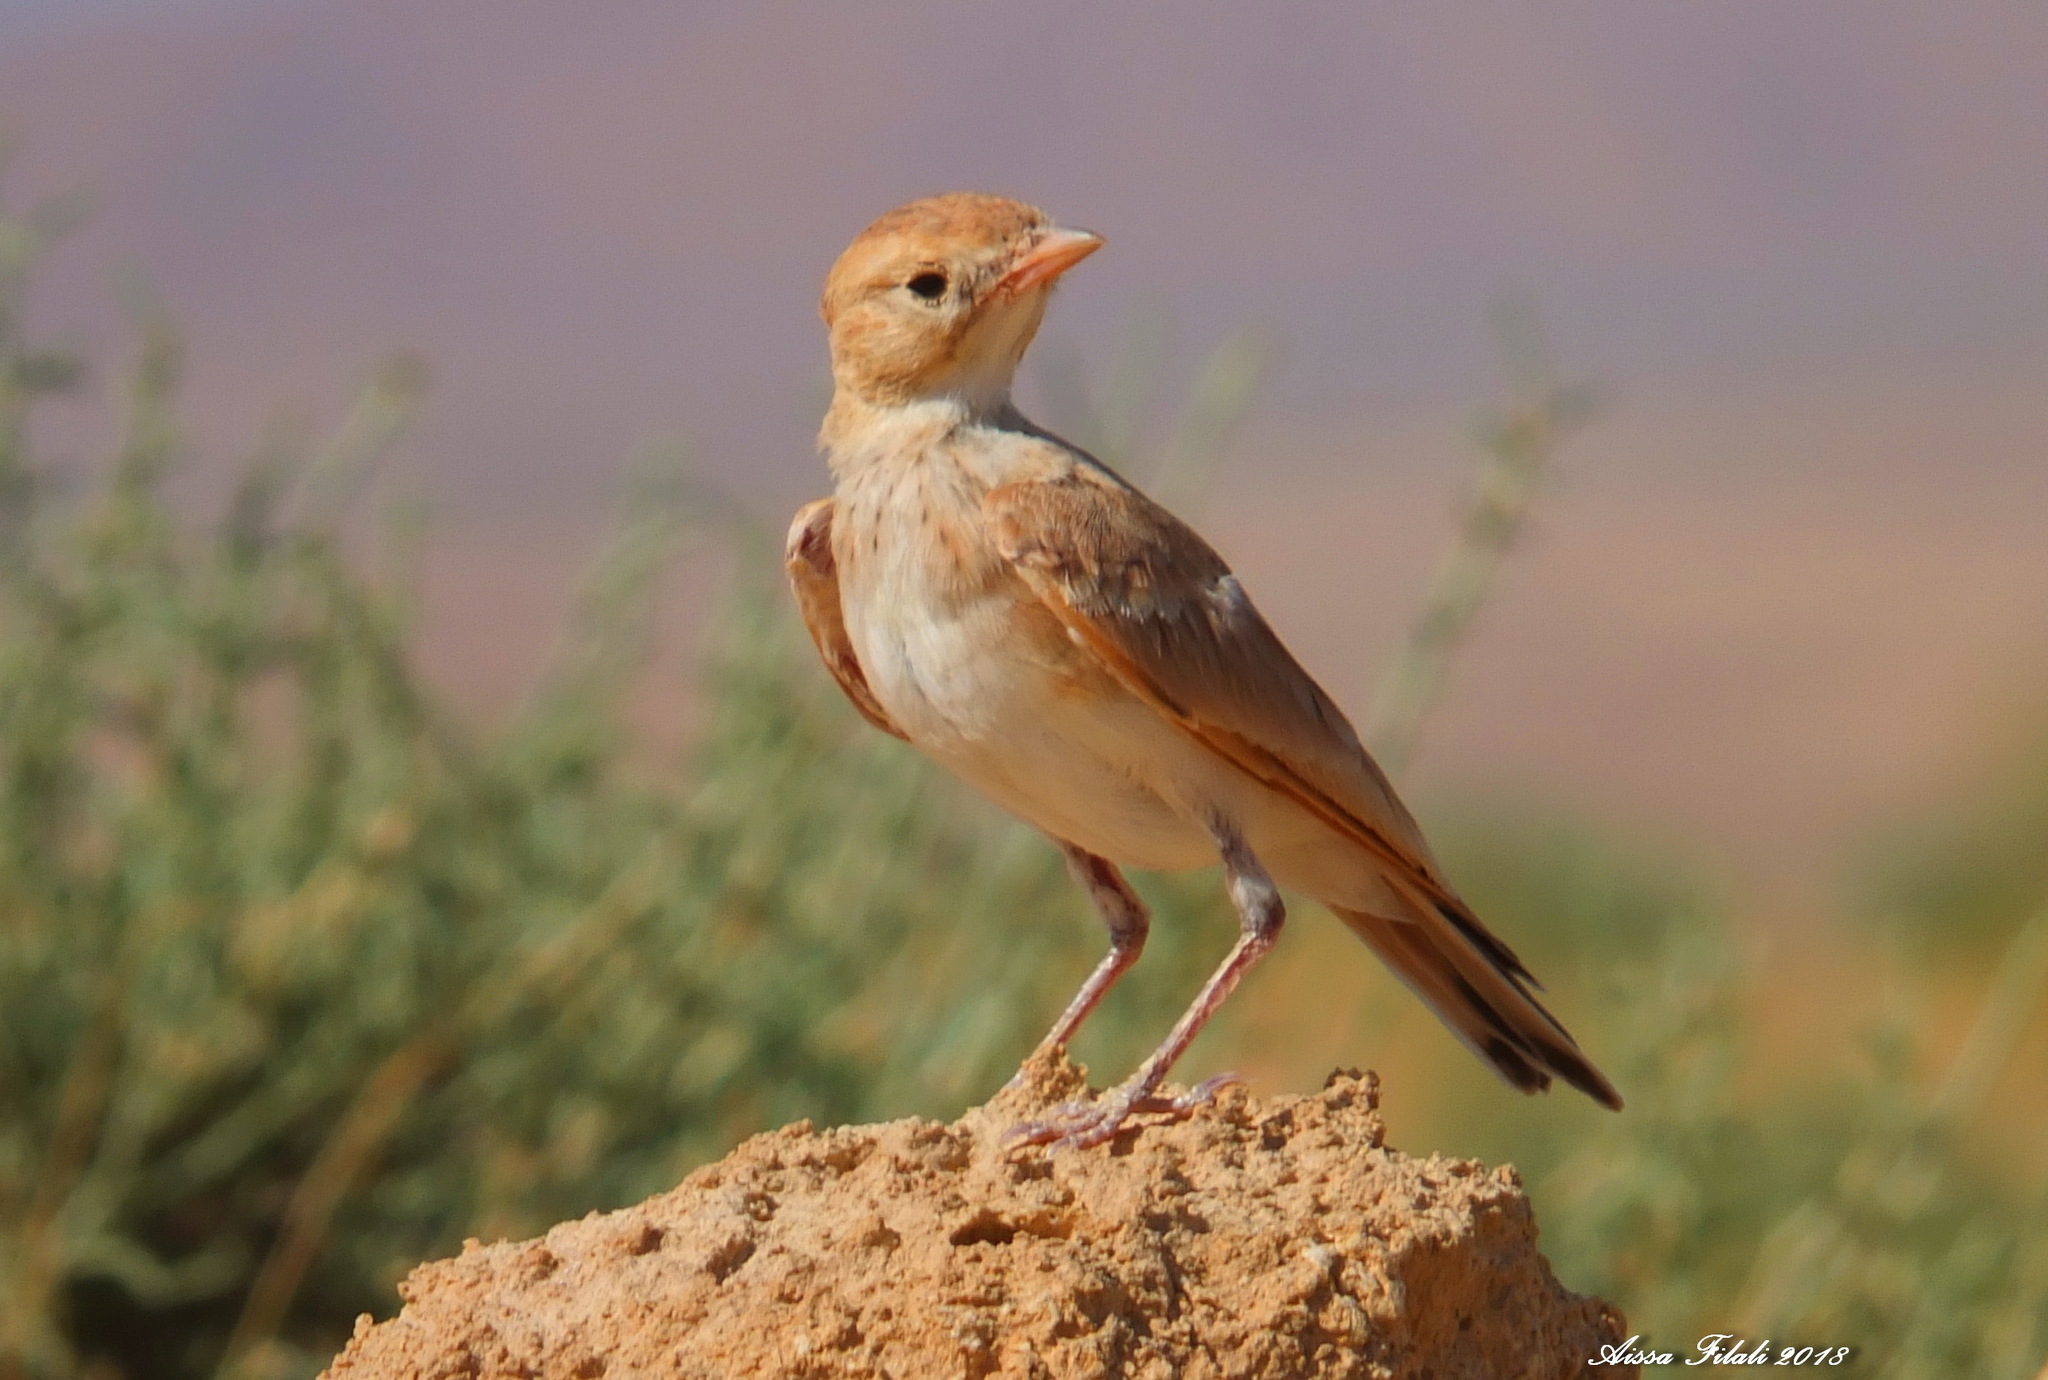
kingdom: Animalia
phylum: Chordata
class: Aves
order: Passeriformes
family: Alaudidae
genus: Ammomanes
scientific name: Ammomanes cinctura
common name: Bar-tailed lark
